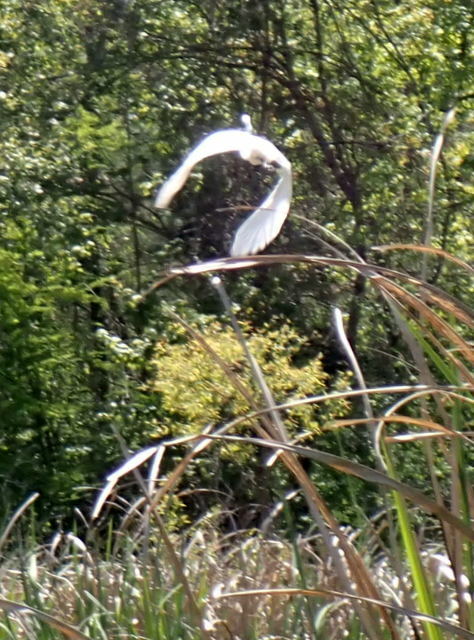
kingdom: Animalia
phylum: Chordata
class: Aves
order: Pelecaniformes
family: Ardeidae
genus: Ardea
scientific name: Ardea alba
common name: Great egret
